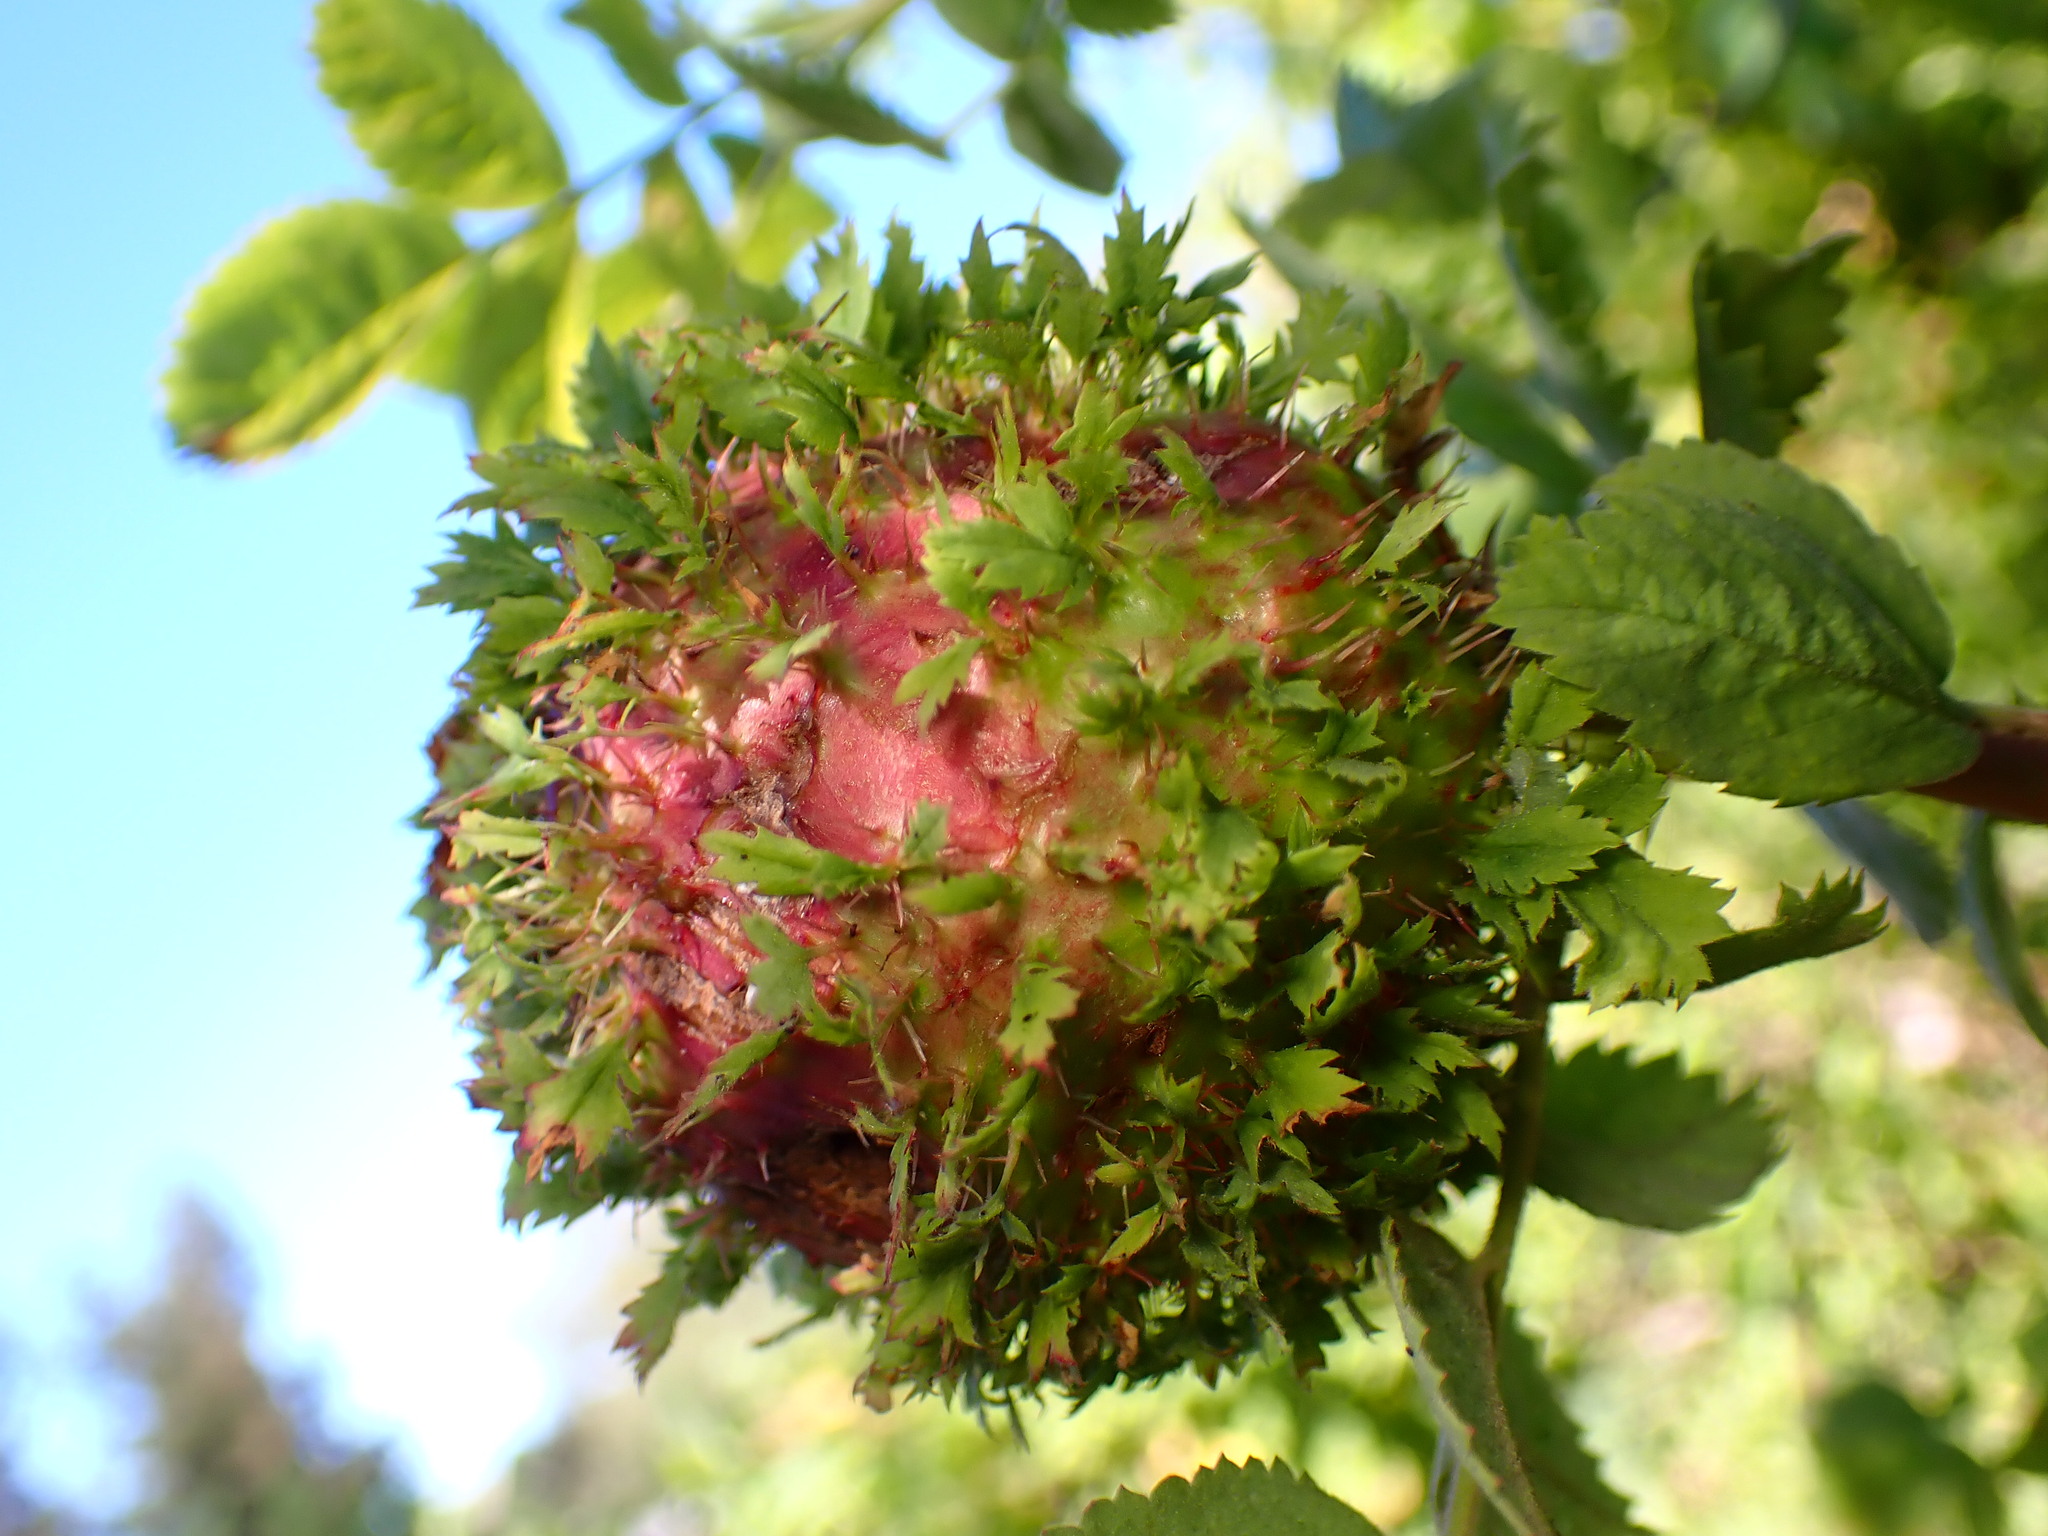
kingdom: Animalia
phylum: Arthropoda
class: Insecta
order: Hymenoptera
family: Cynipidae
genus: Diplolepis
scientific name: Diplolepis californica
